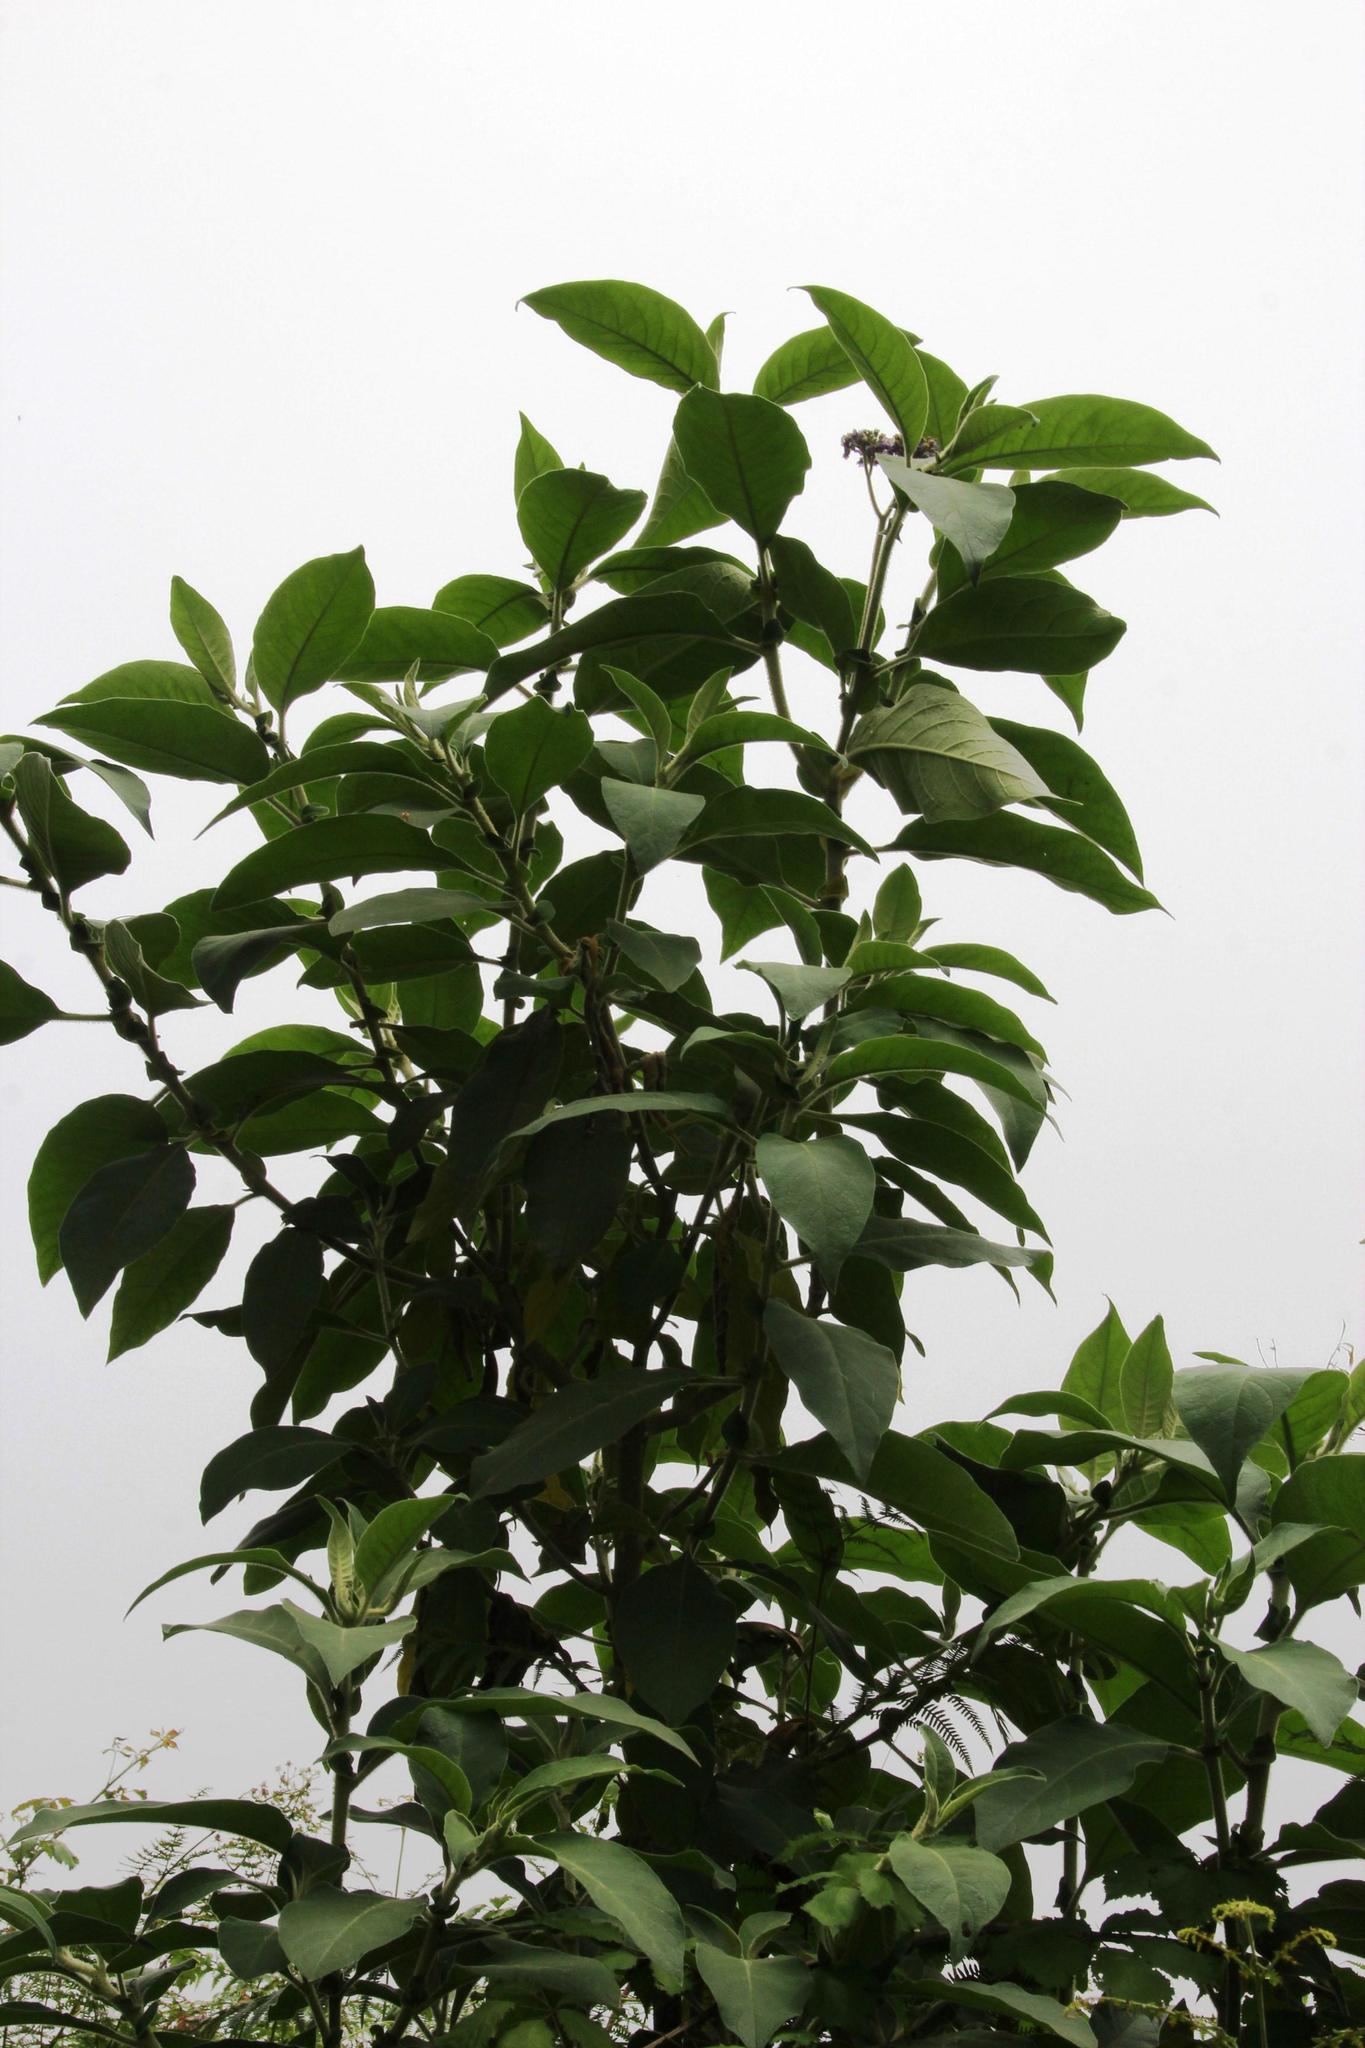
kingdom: Plantae
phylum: Tracheophyta
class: Magnoliopsida
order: Solanales
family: Solanaceae
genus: Solanum
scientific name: Solanum mauritianum
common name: Earleaf nightshade
